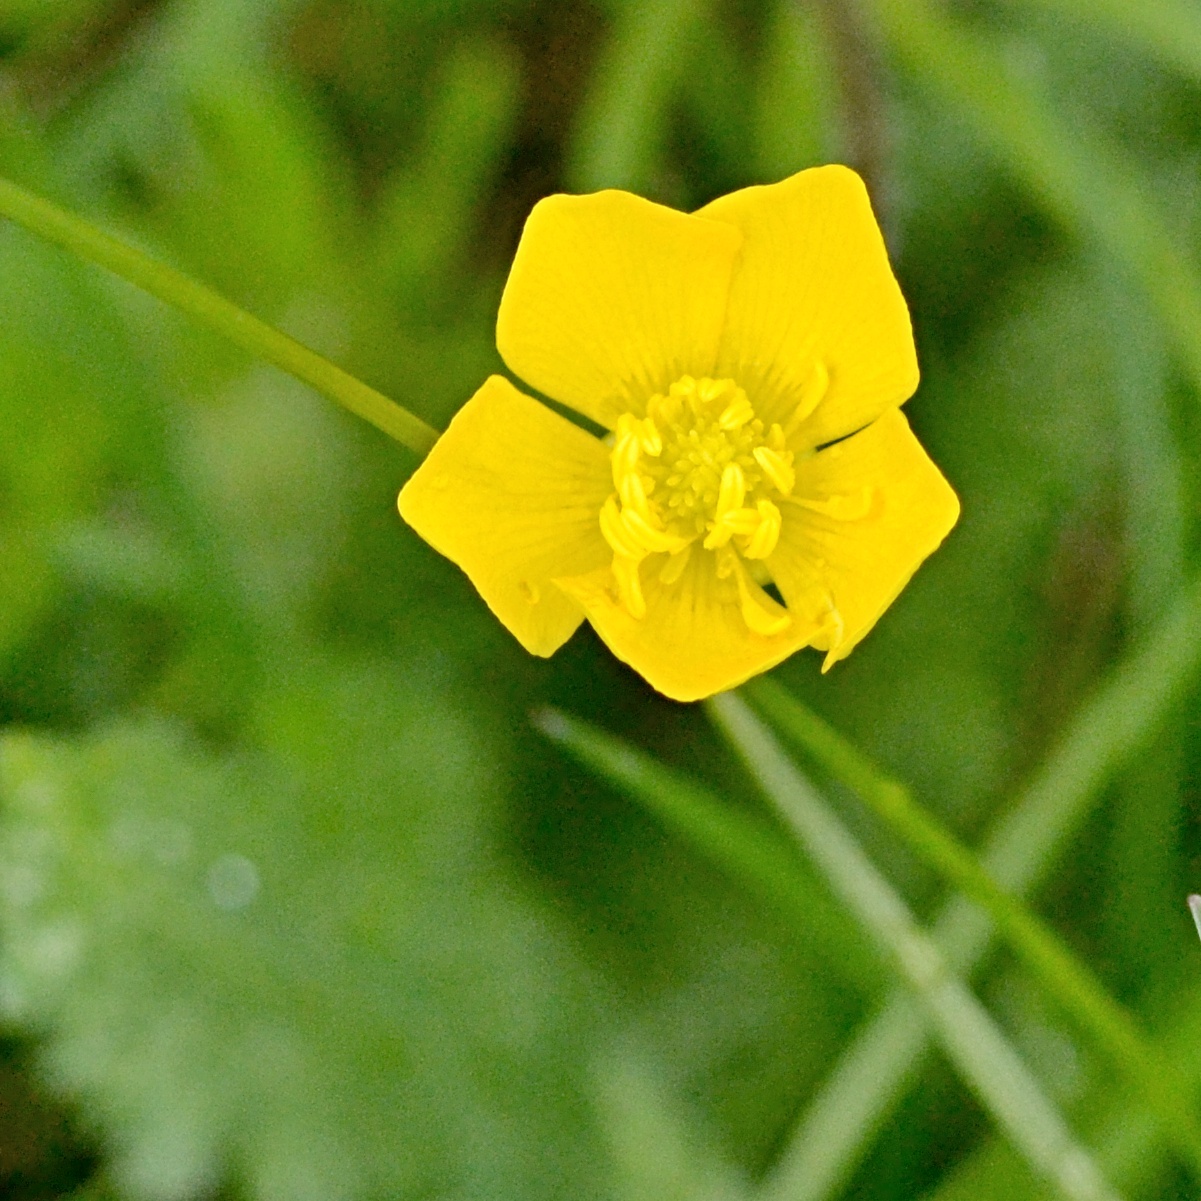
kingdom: Plantae
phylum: Tracheophyta
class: Magnoliopsida
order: Ranunculales
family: Ranunculaceae
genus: Ranunculus
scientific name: Ranunculus bulbosus
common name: Bulbous buttercup
